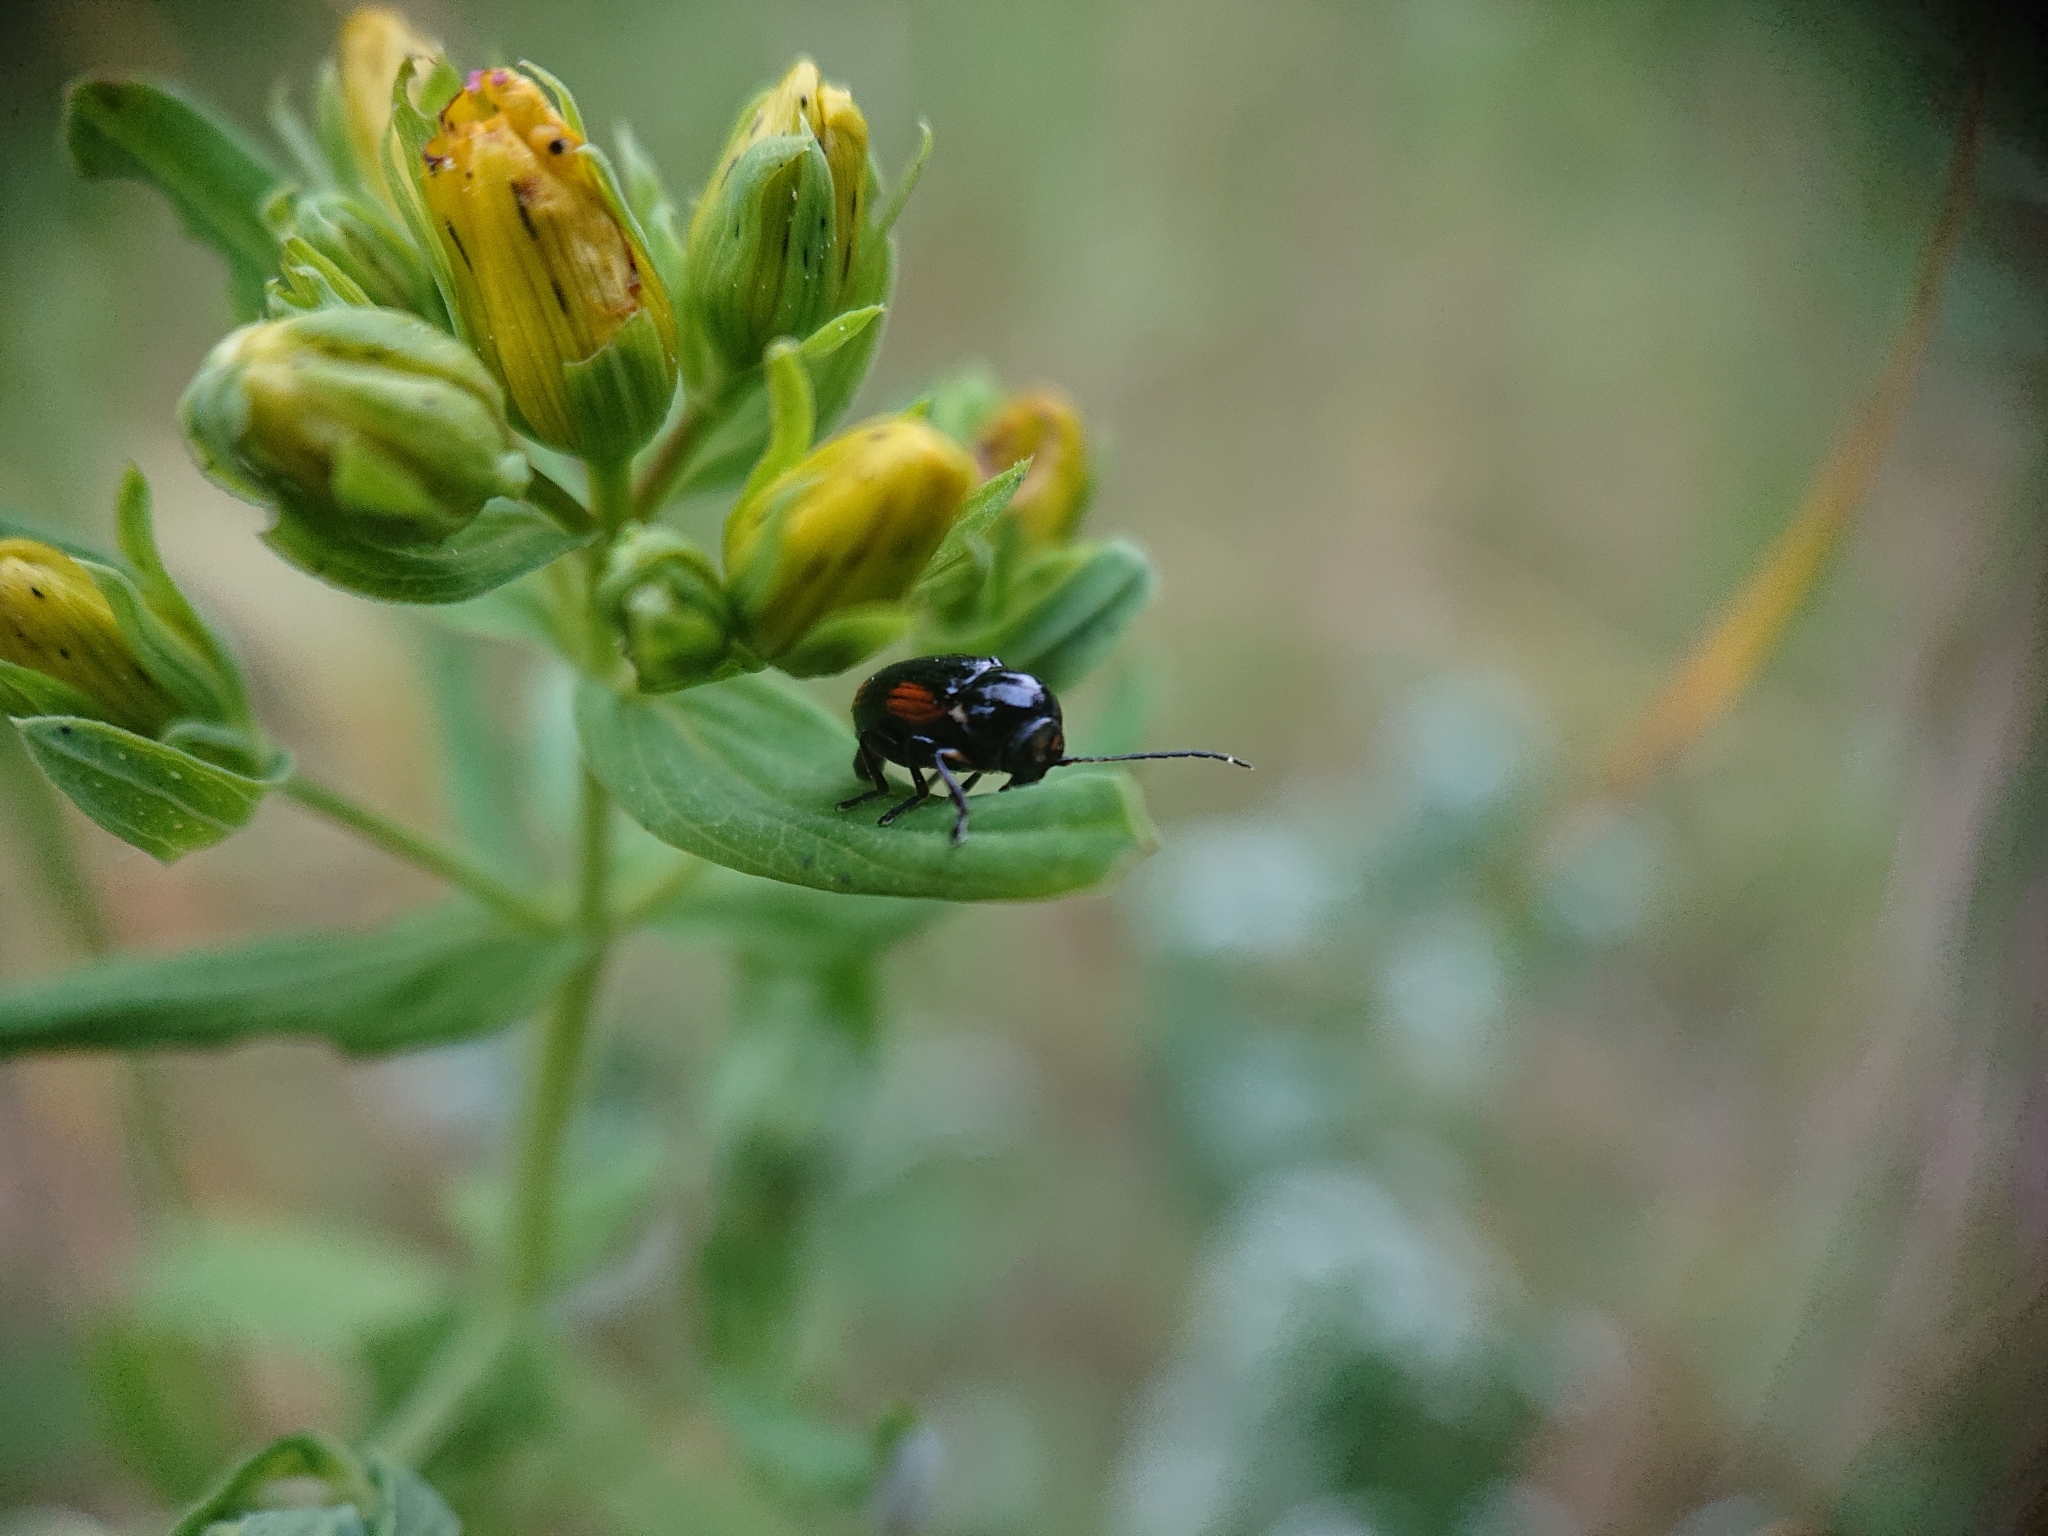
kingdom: Animalia
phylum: Arthropoda
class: Insecta
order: Coleoptera
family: Chrysomelidae
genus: Cryptocephalus
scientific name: Cryptocephalus moraei
